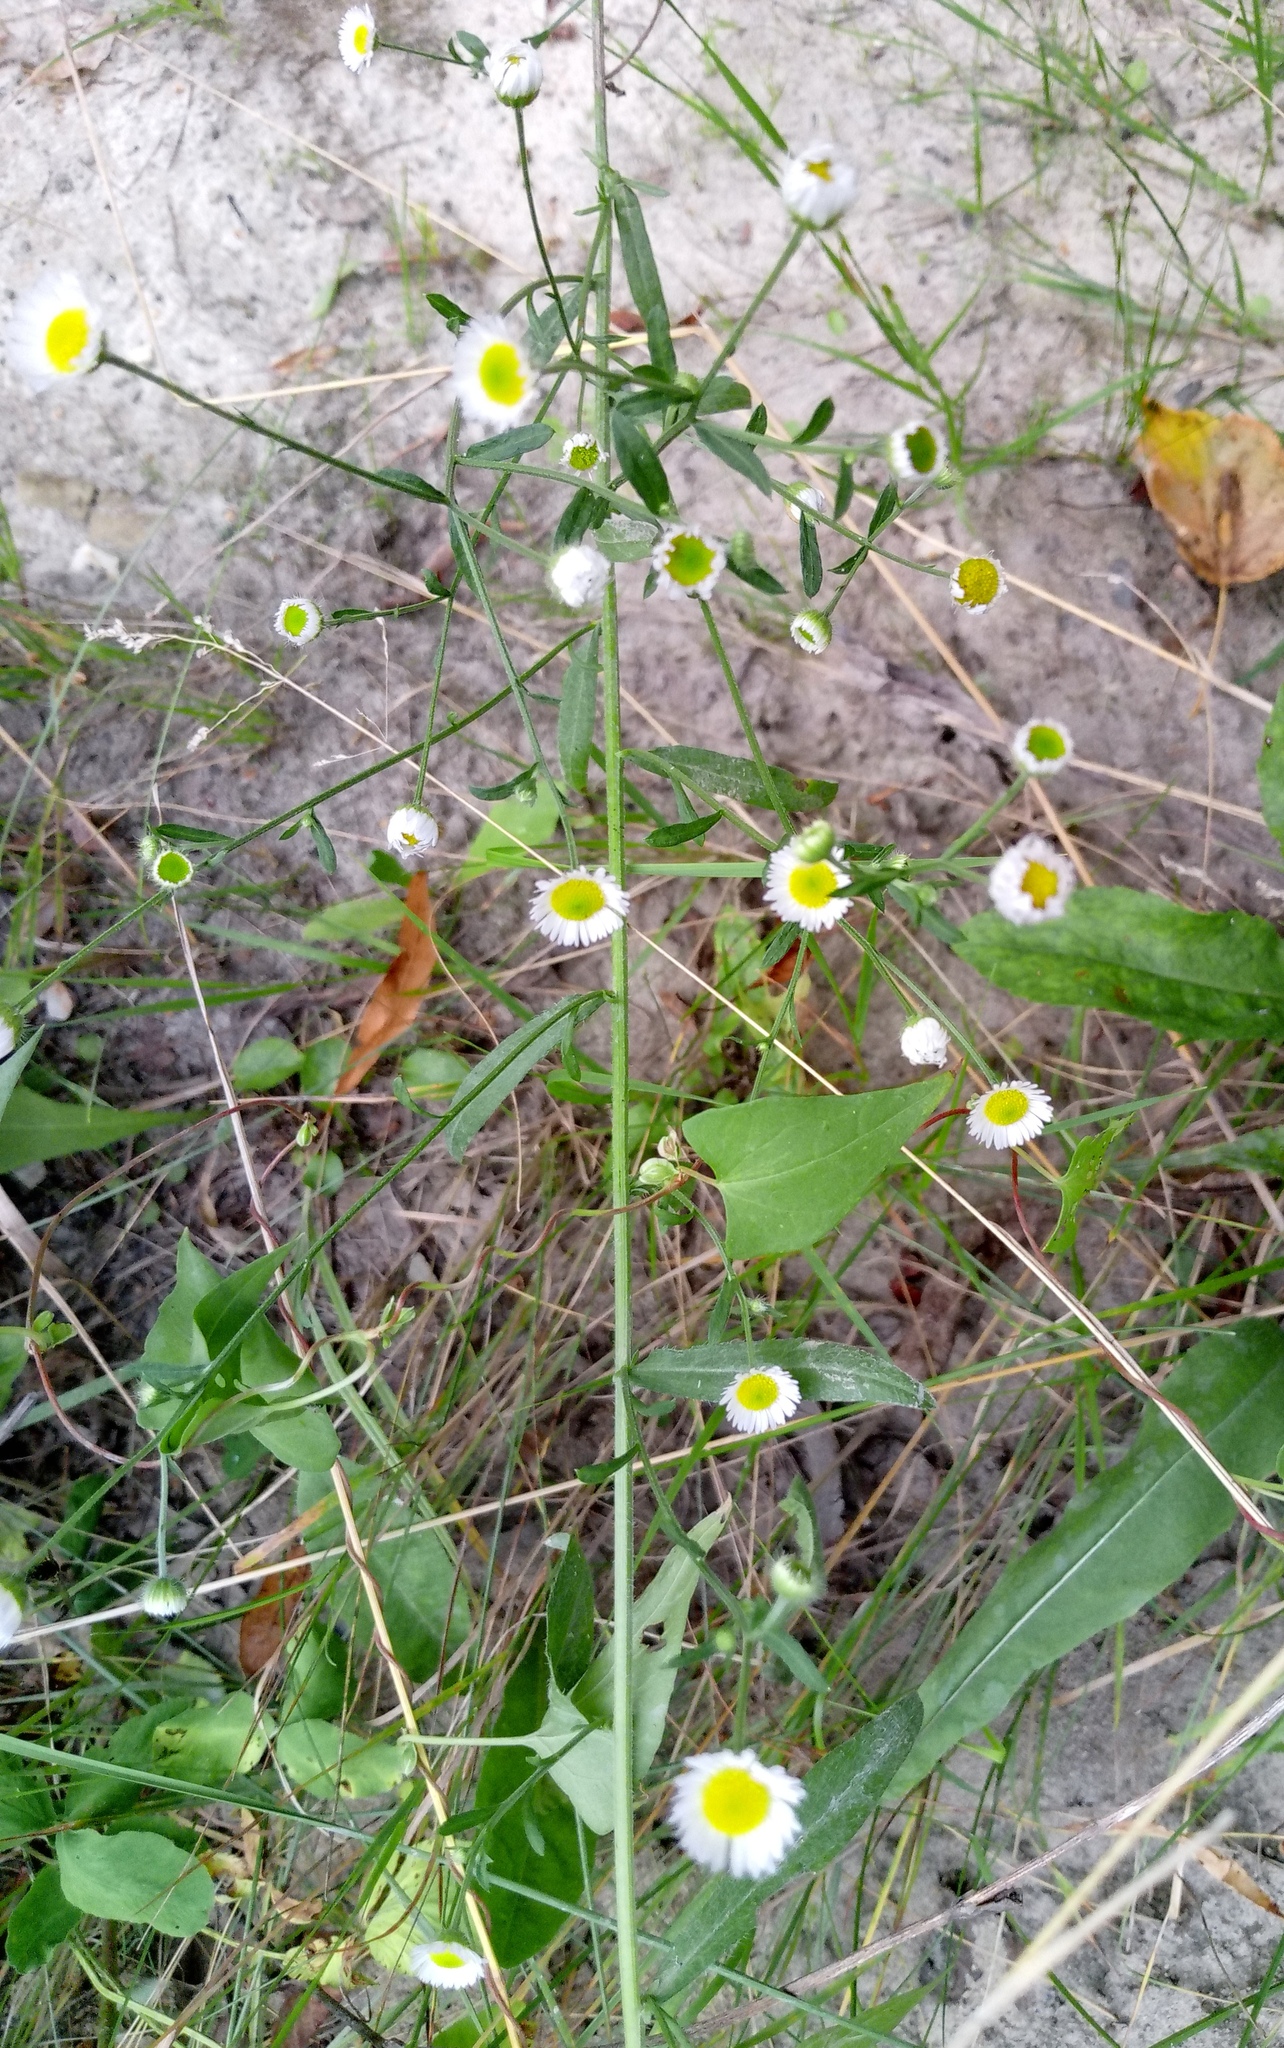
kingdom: Plantae
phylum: Tracheophyta
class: Magnoliopsida
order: Asterales
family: Asteraceae
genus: Erigeron
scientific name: Erigeron annuus
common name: Tall fleabane
